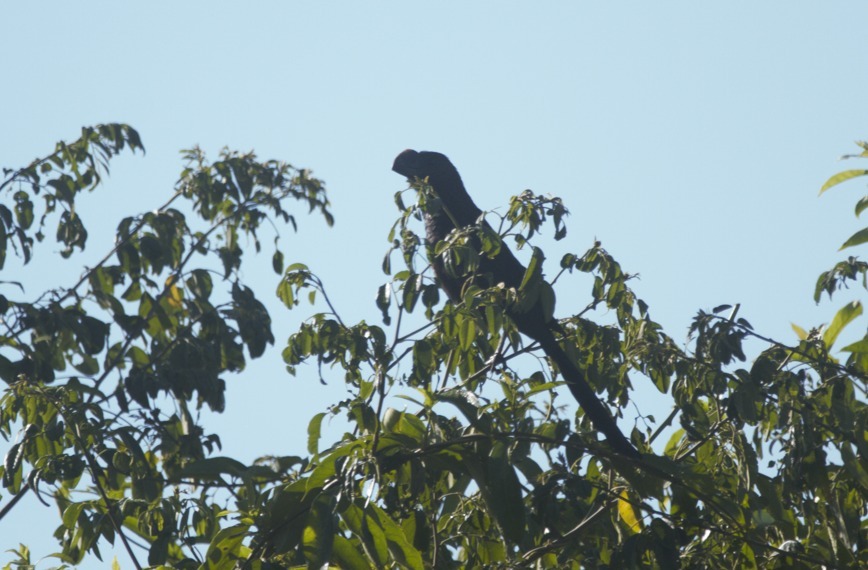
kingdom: Animalia
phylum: Chordata
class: Aves
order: Cuculiformes
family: Cuculidae
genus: Crotophaga
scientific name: Crotophaga ani
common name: Smooth-billed ani
